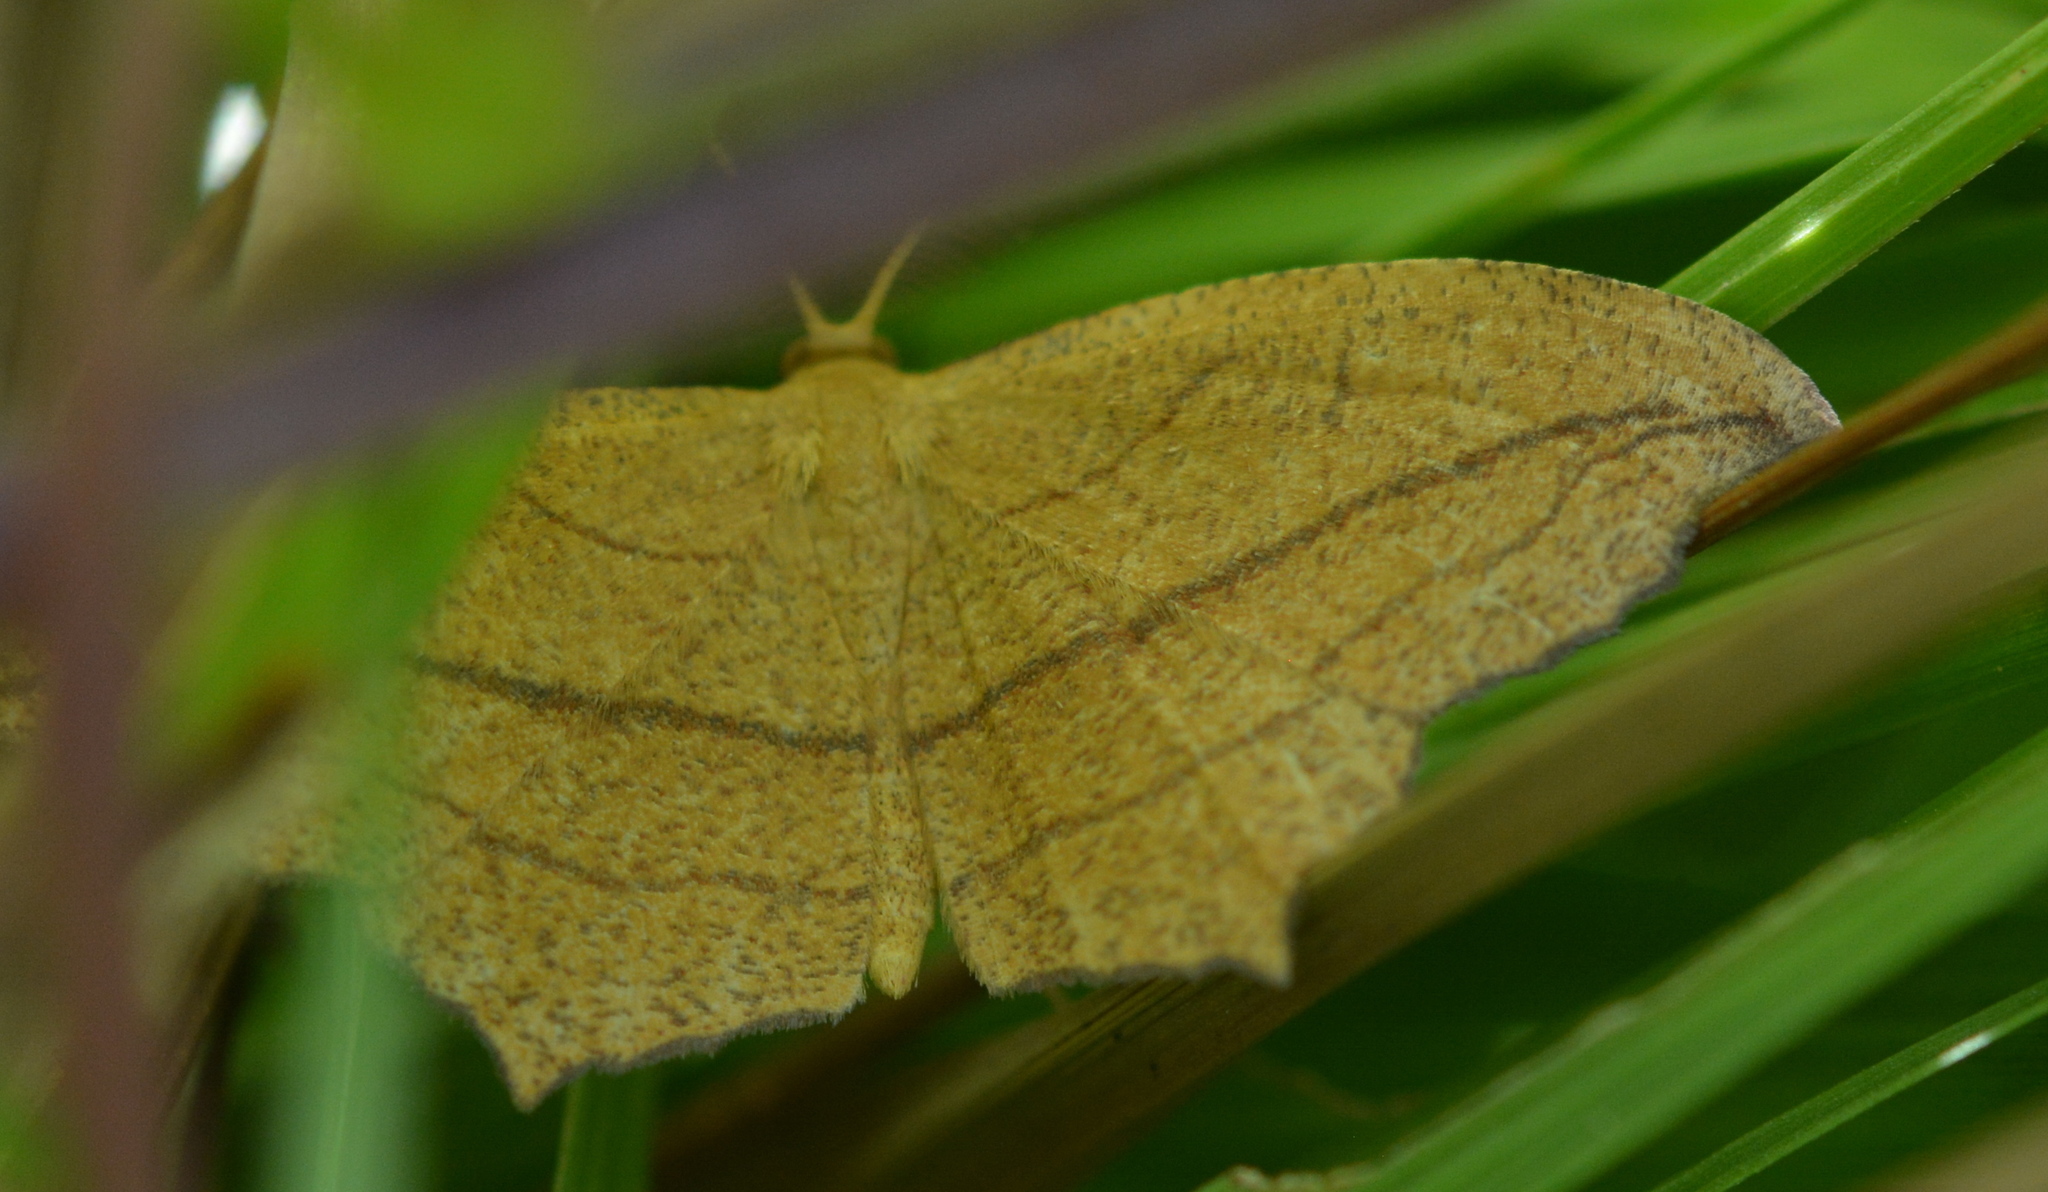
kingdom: Animalia
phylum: Arthropoda
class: Insecta
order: Lepidoptera
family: Geometridae
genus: Timandra
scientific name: Timandra amaturaria
